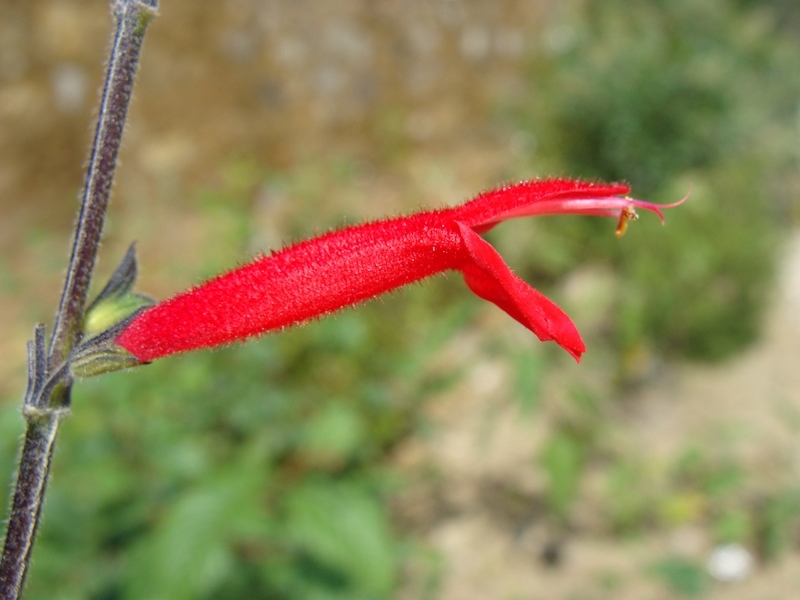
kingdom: Plantae
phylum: Tracheophyta
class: Magnoliopsida
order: Lamiales
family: Lamiaceae
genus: Salvia
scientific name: Salvia elegans
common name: Pineapple sage
